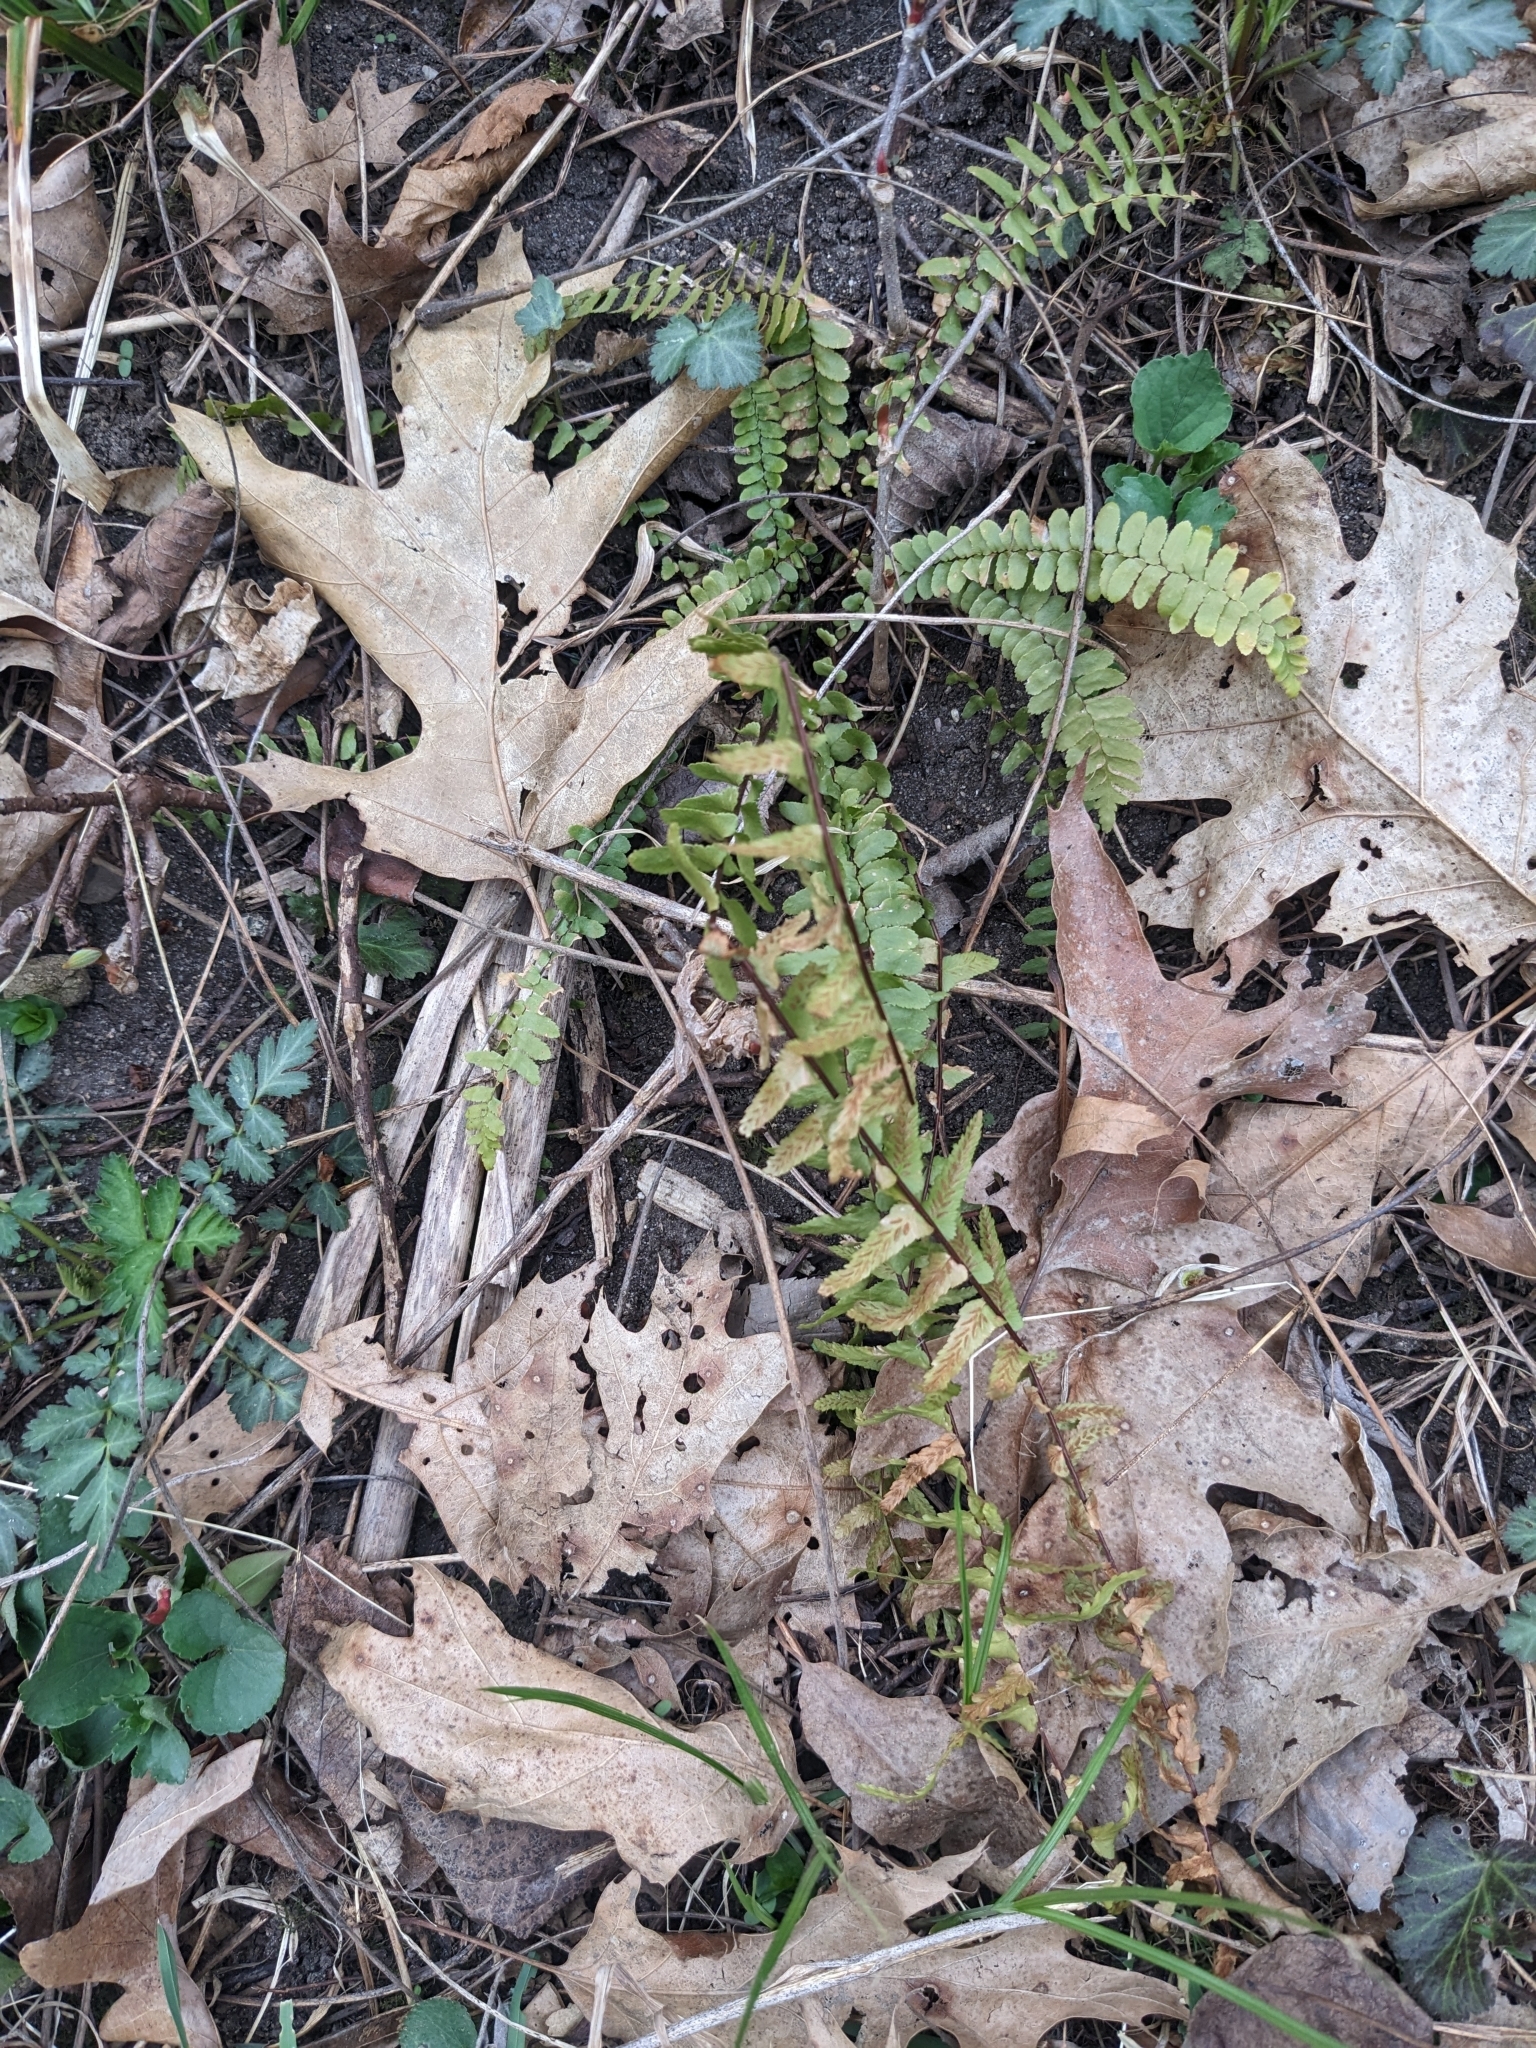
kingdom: Plantae
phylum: Tracheophyta
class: Polypodiopsida
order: Polypodiales
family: Aspleniaceae
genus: Asplenium
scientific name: Asplenium platyneuron
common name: Ebony spleenwort
